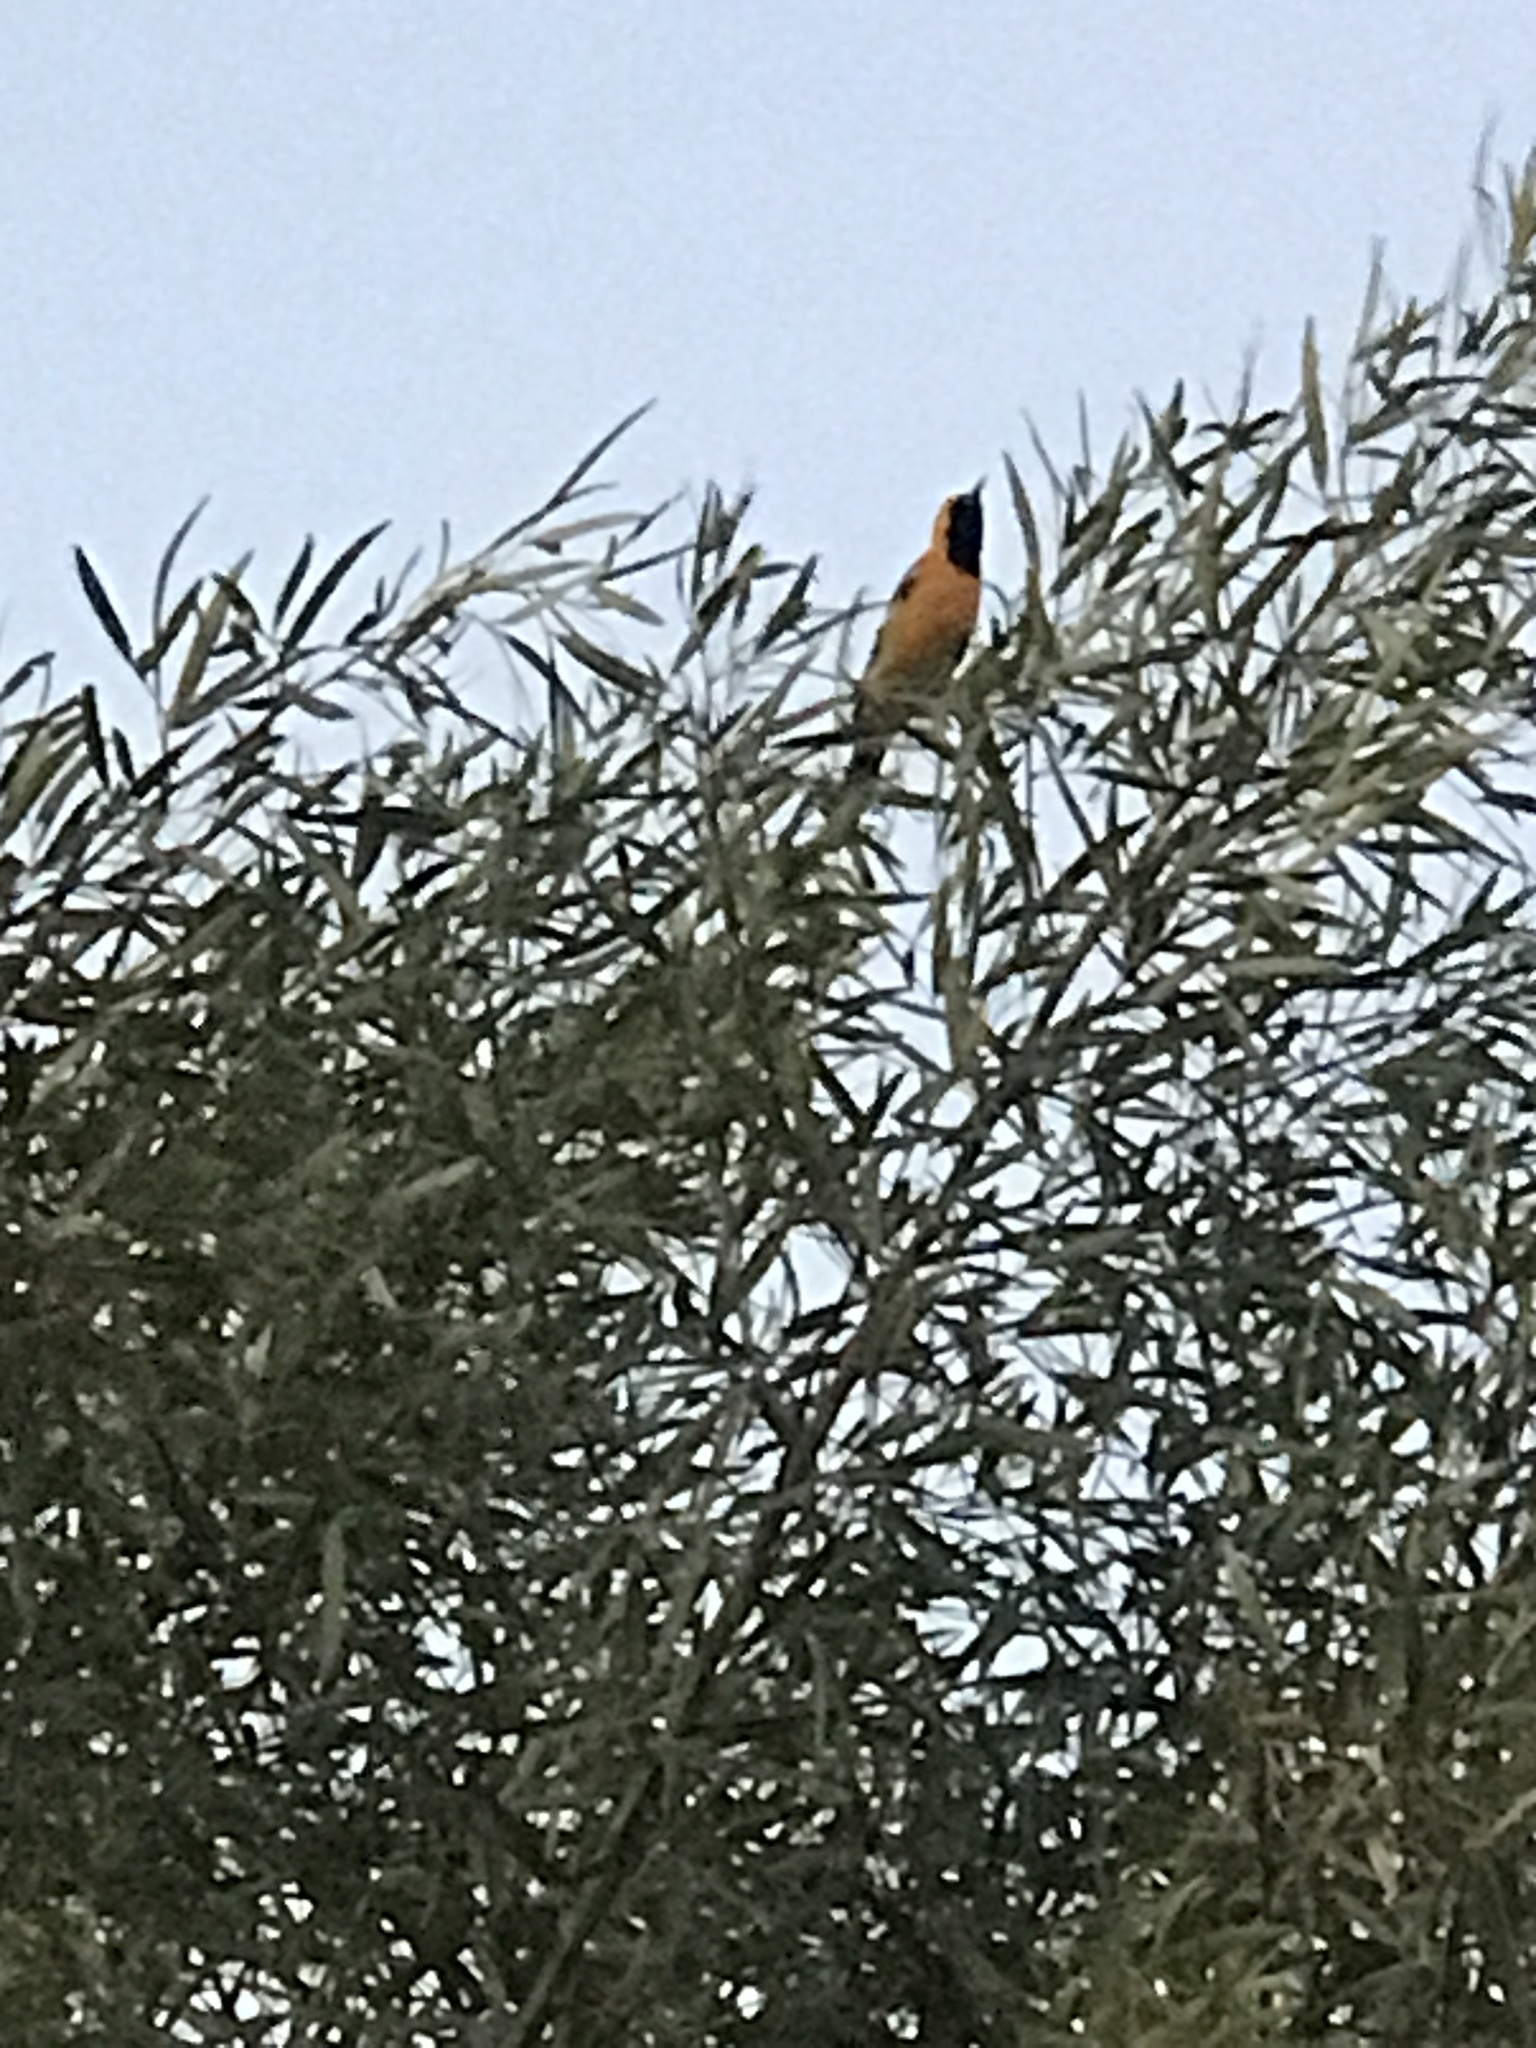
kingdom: Animalia
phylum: Chordata
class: Aves
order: Passeriformes
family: Icteridae
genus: Icterus
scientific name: Icterus cucullatus
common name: Hooded oriole
